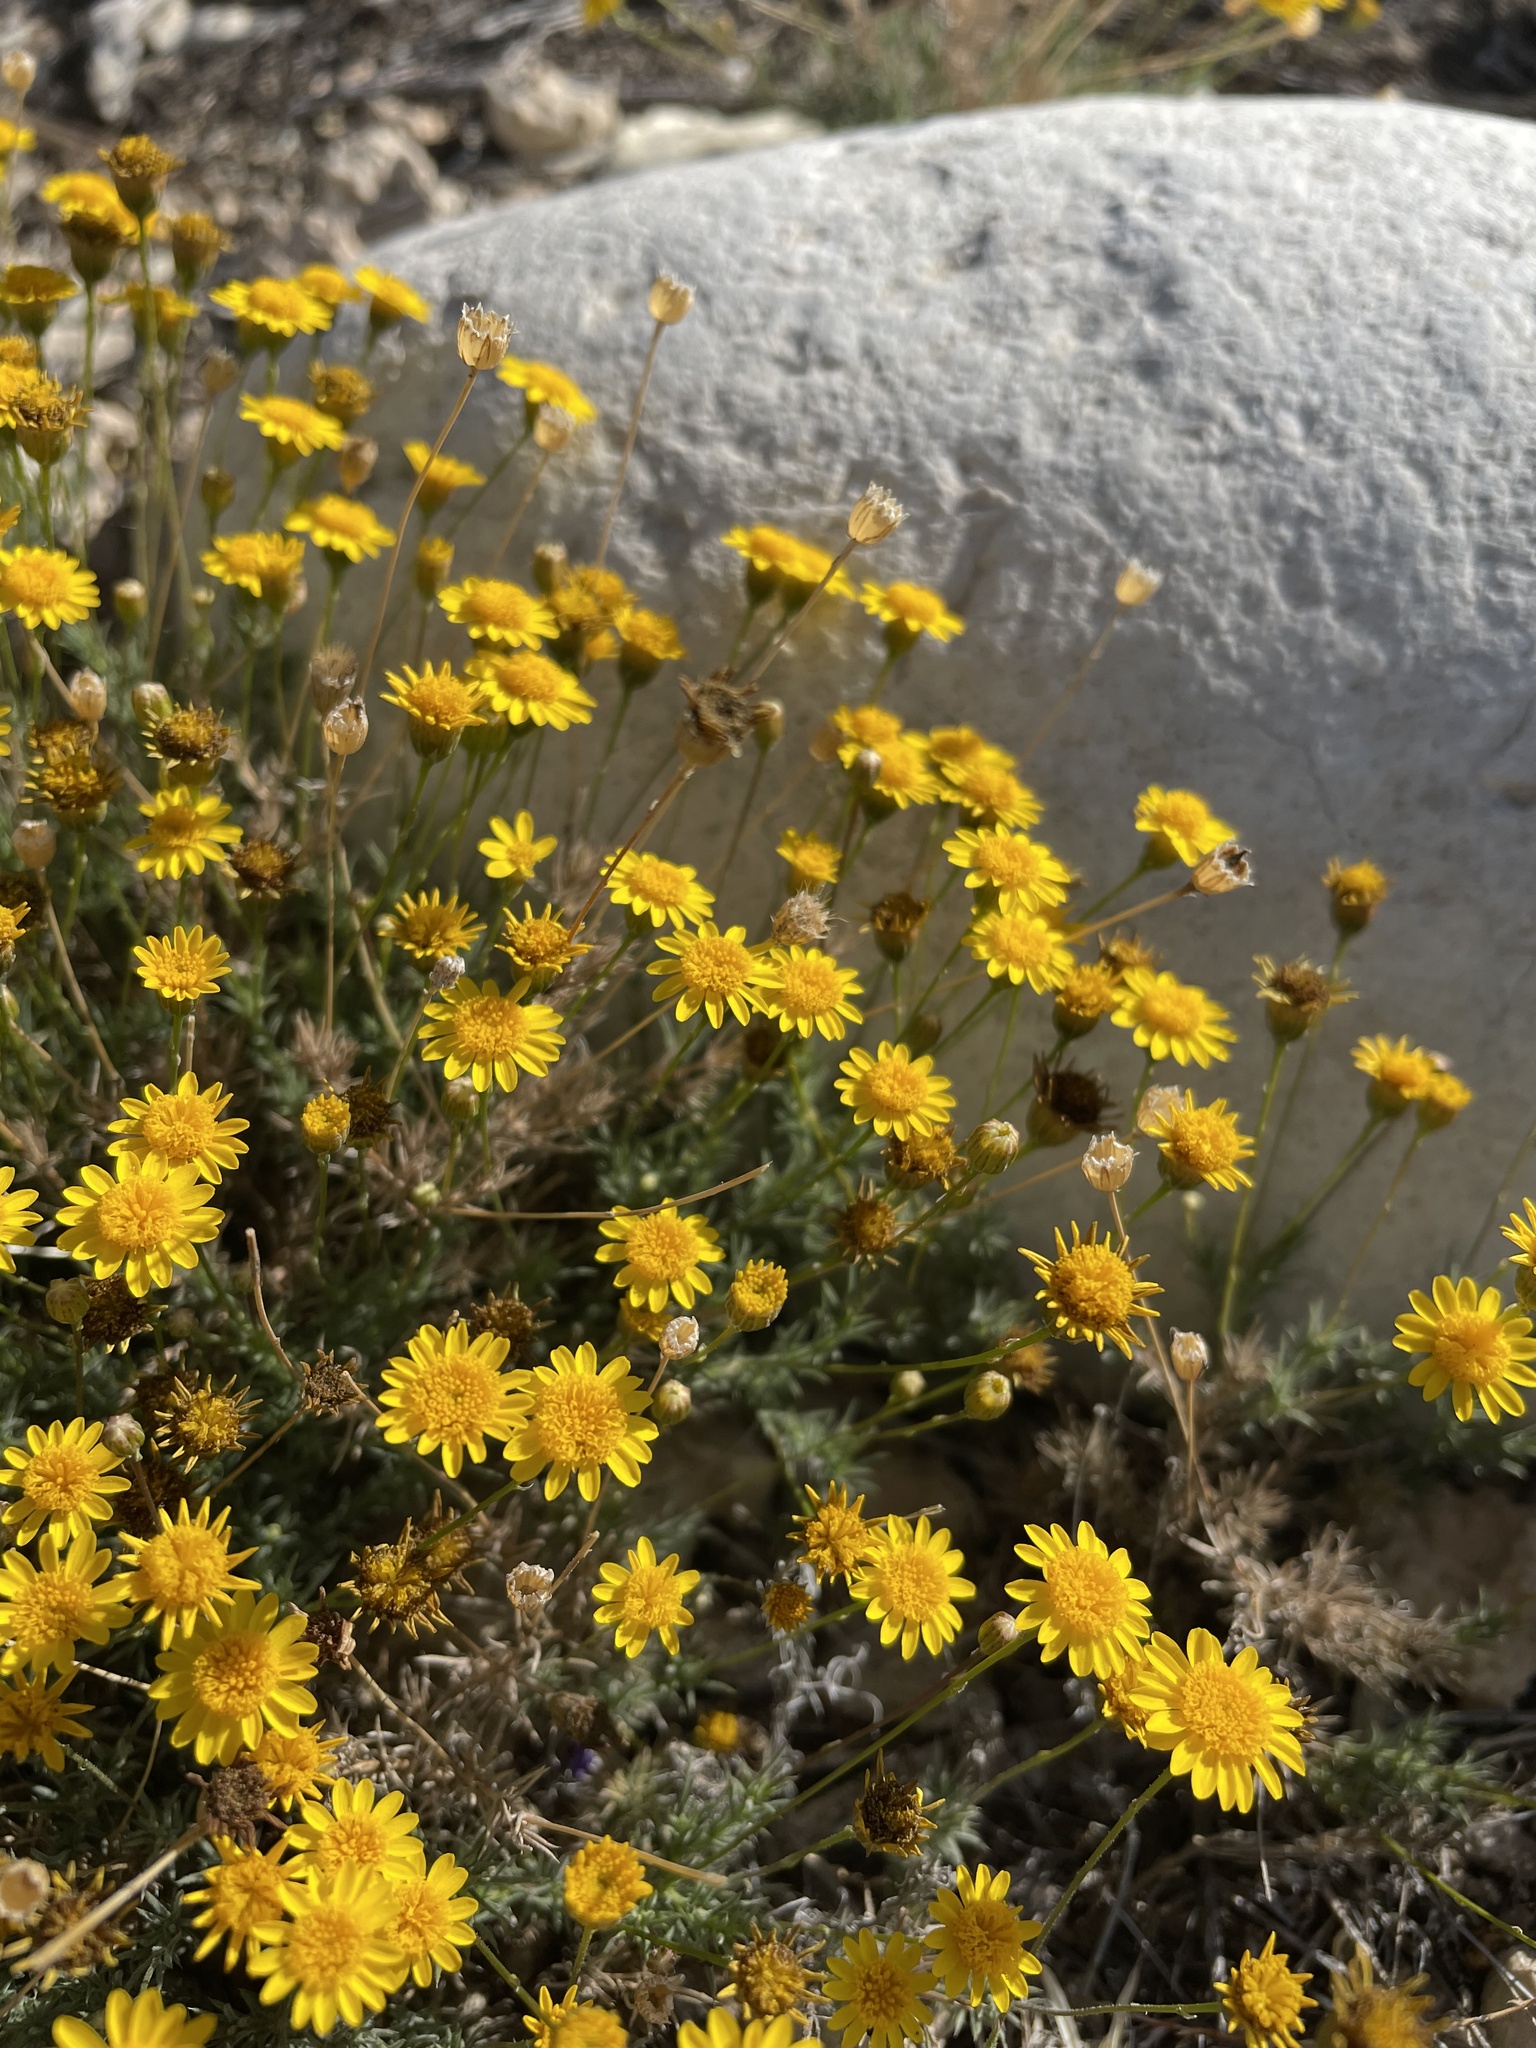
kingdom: Plantae
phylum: Tracheophyta
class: Magnoliopsida
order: Asterales
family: Asteraceae
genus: Thymophylla
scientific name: Thymophylla pentachaeta
